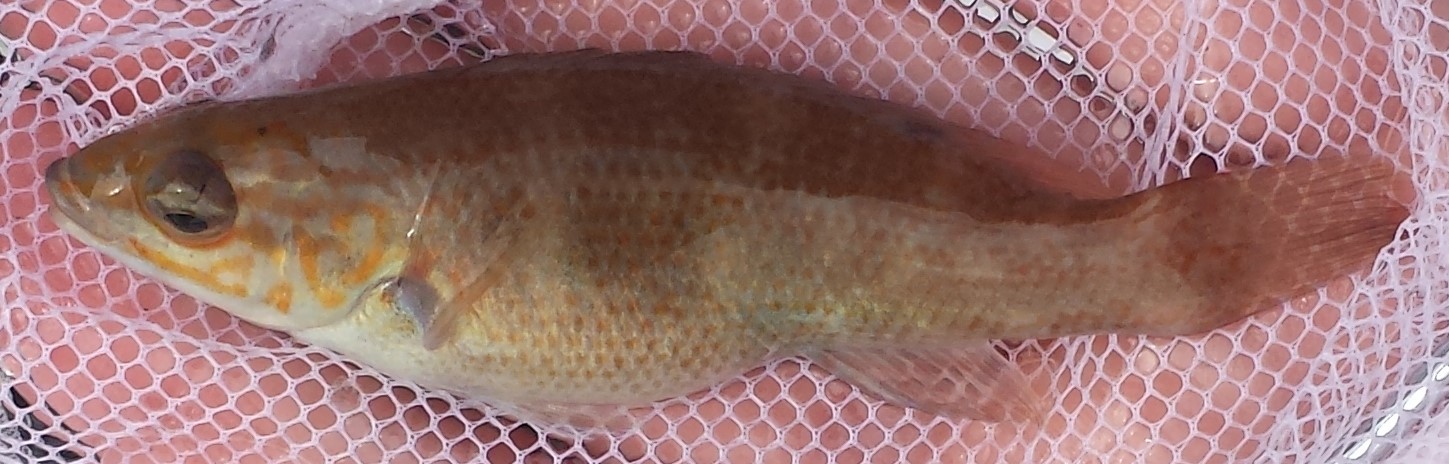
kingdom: Animalia
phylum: Chordata
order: Perciformes
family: Labridae
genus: Tautogolabrus
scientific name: Tautogolabrus adspersus
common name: Cunner
